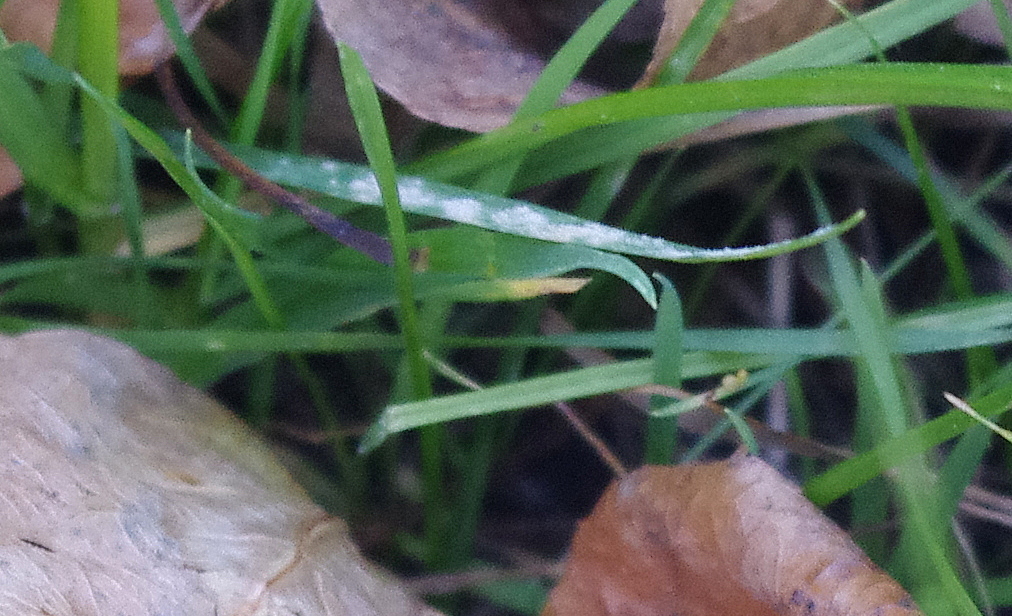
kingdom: Fungi
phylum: Ascomycota
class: Leotiomycetes
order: Helotiales
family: Erysiphaceae
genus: Blumeria
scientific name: Blumeria
